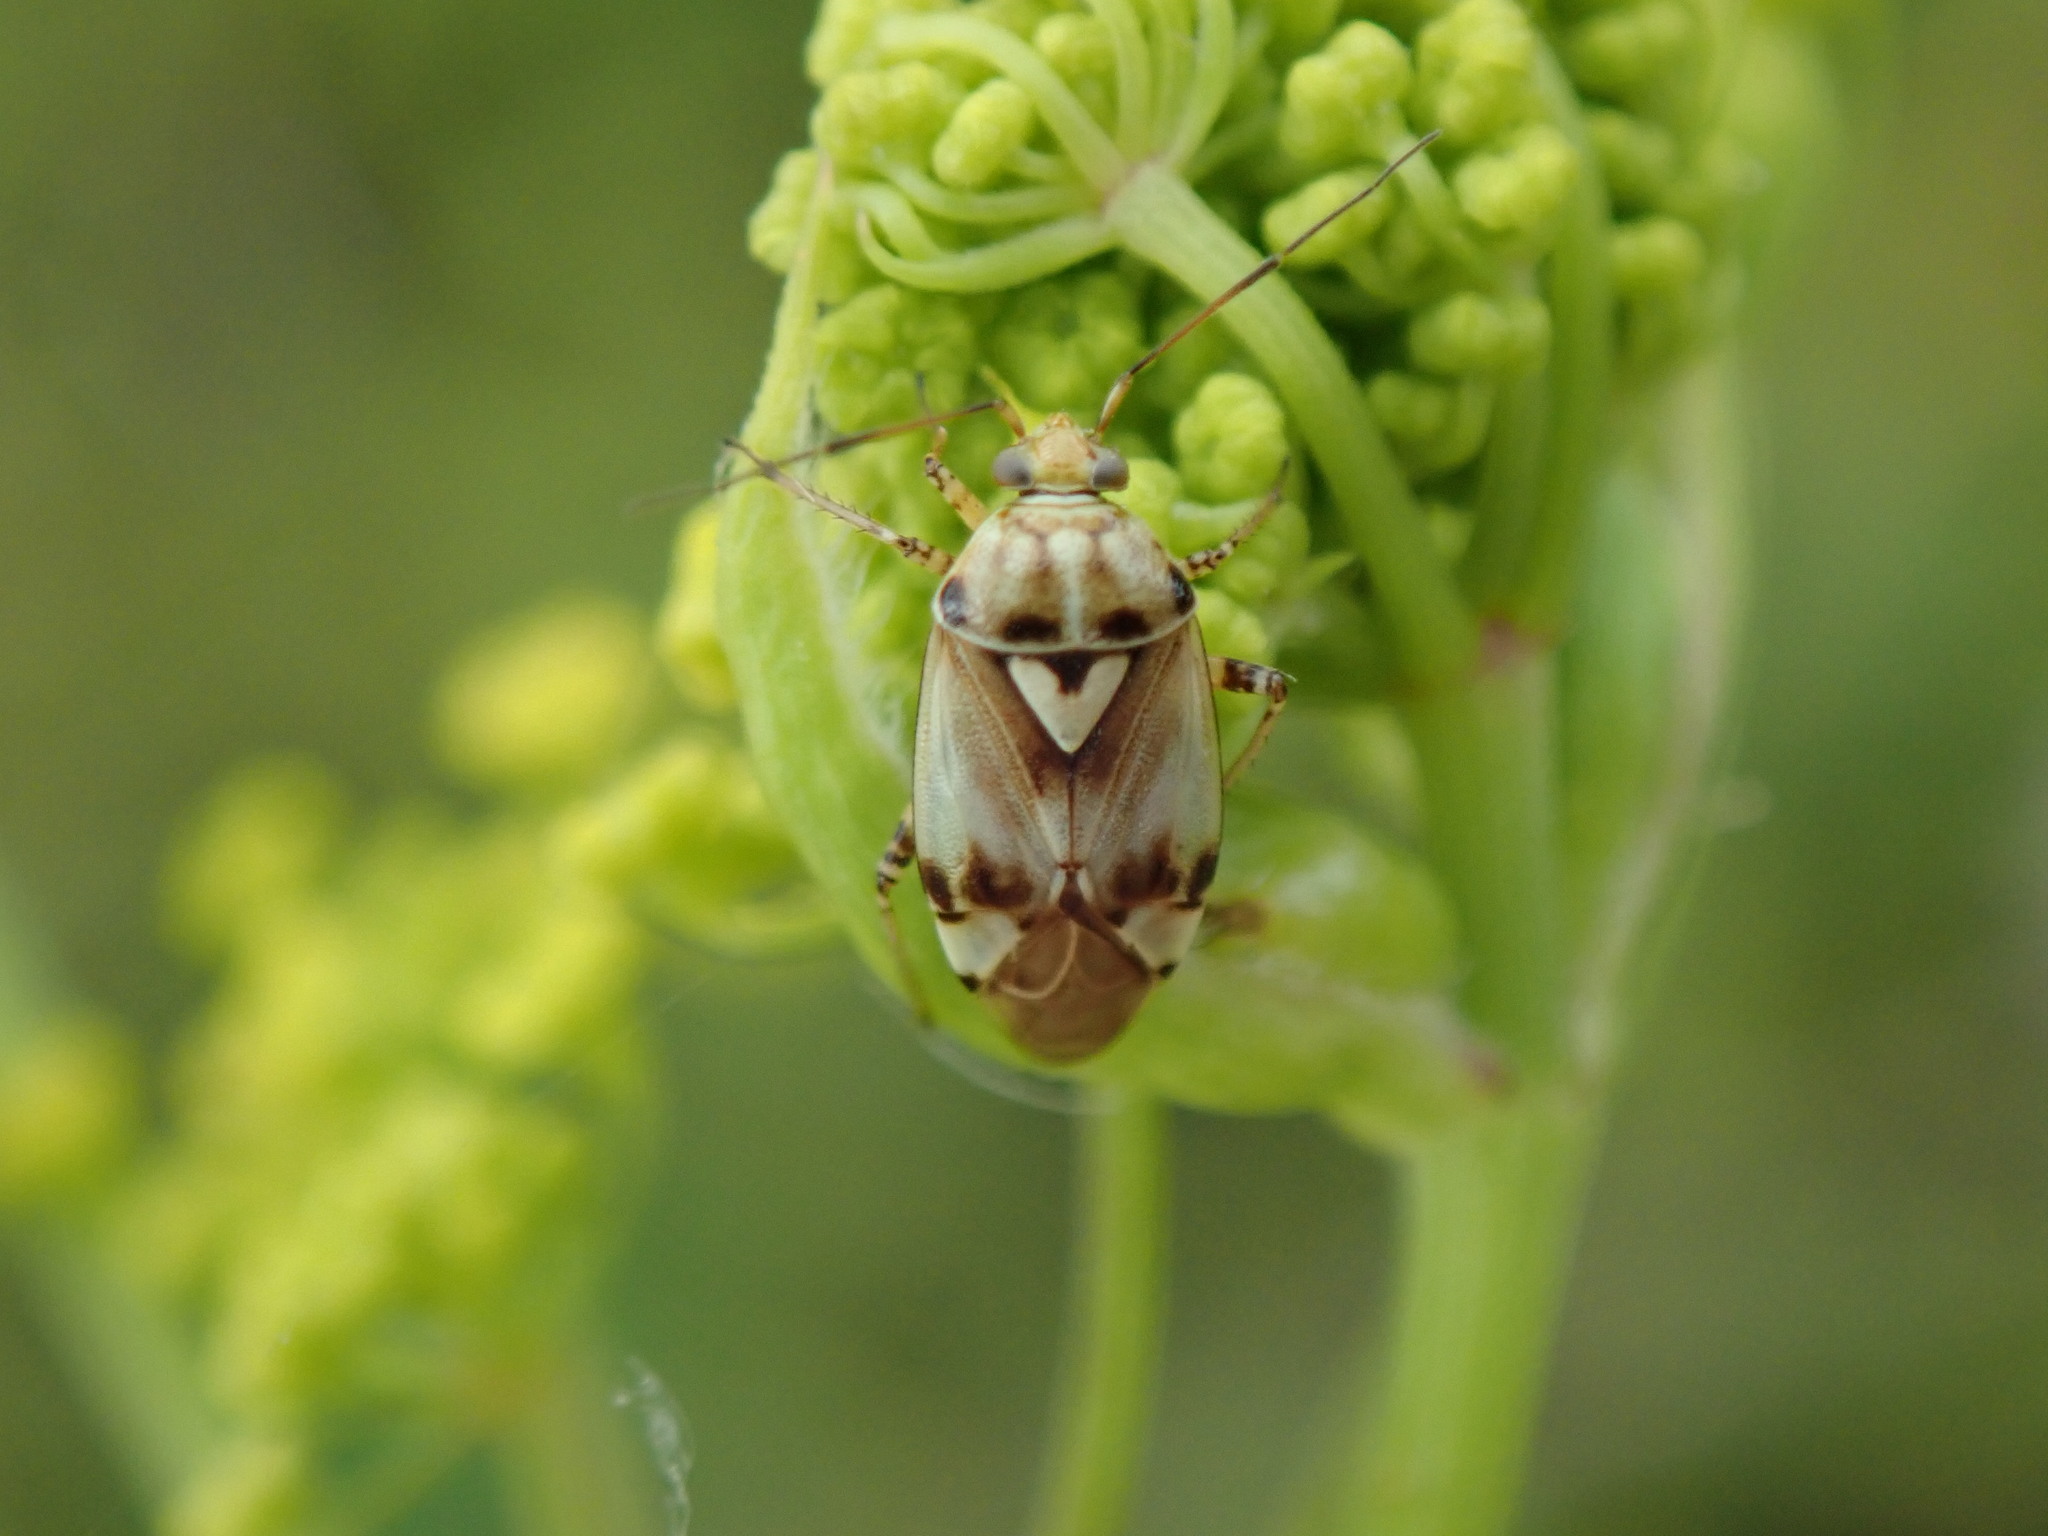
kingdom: Animalia
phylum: Arthropoda
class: Insecta
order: Hemiptera
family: Miridae
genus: Lygus
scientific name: Lygus pratensis
